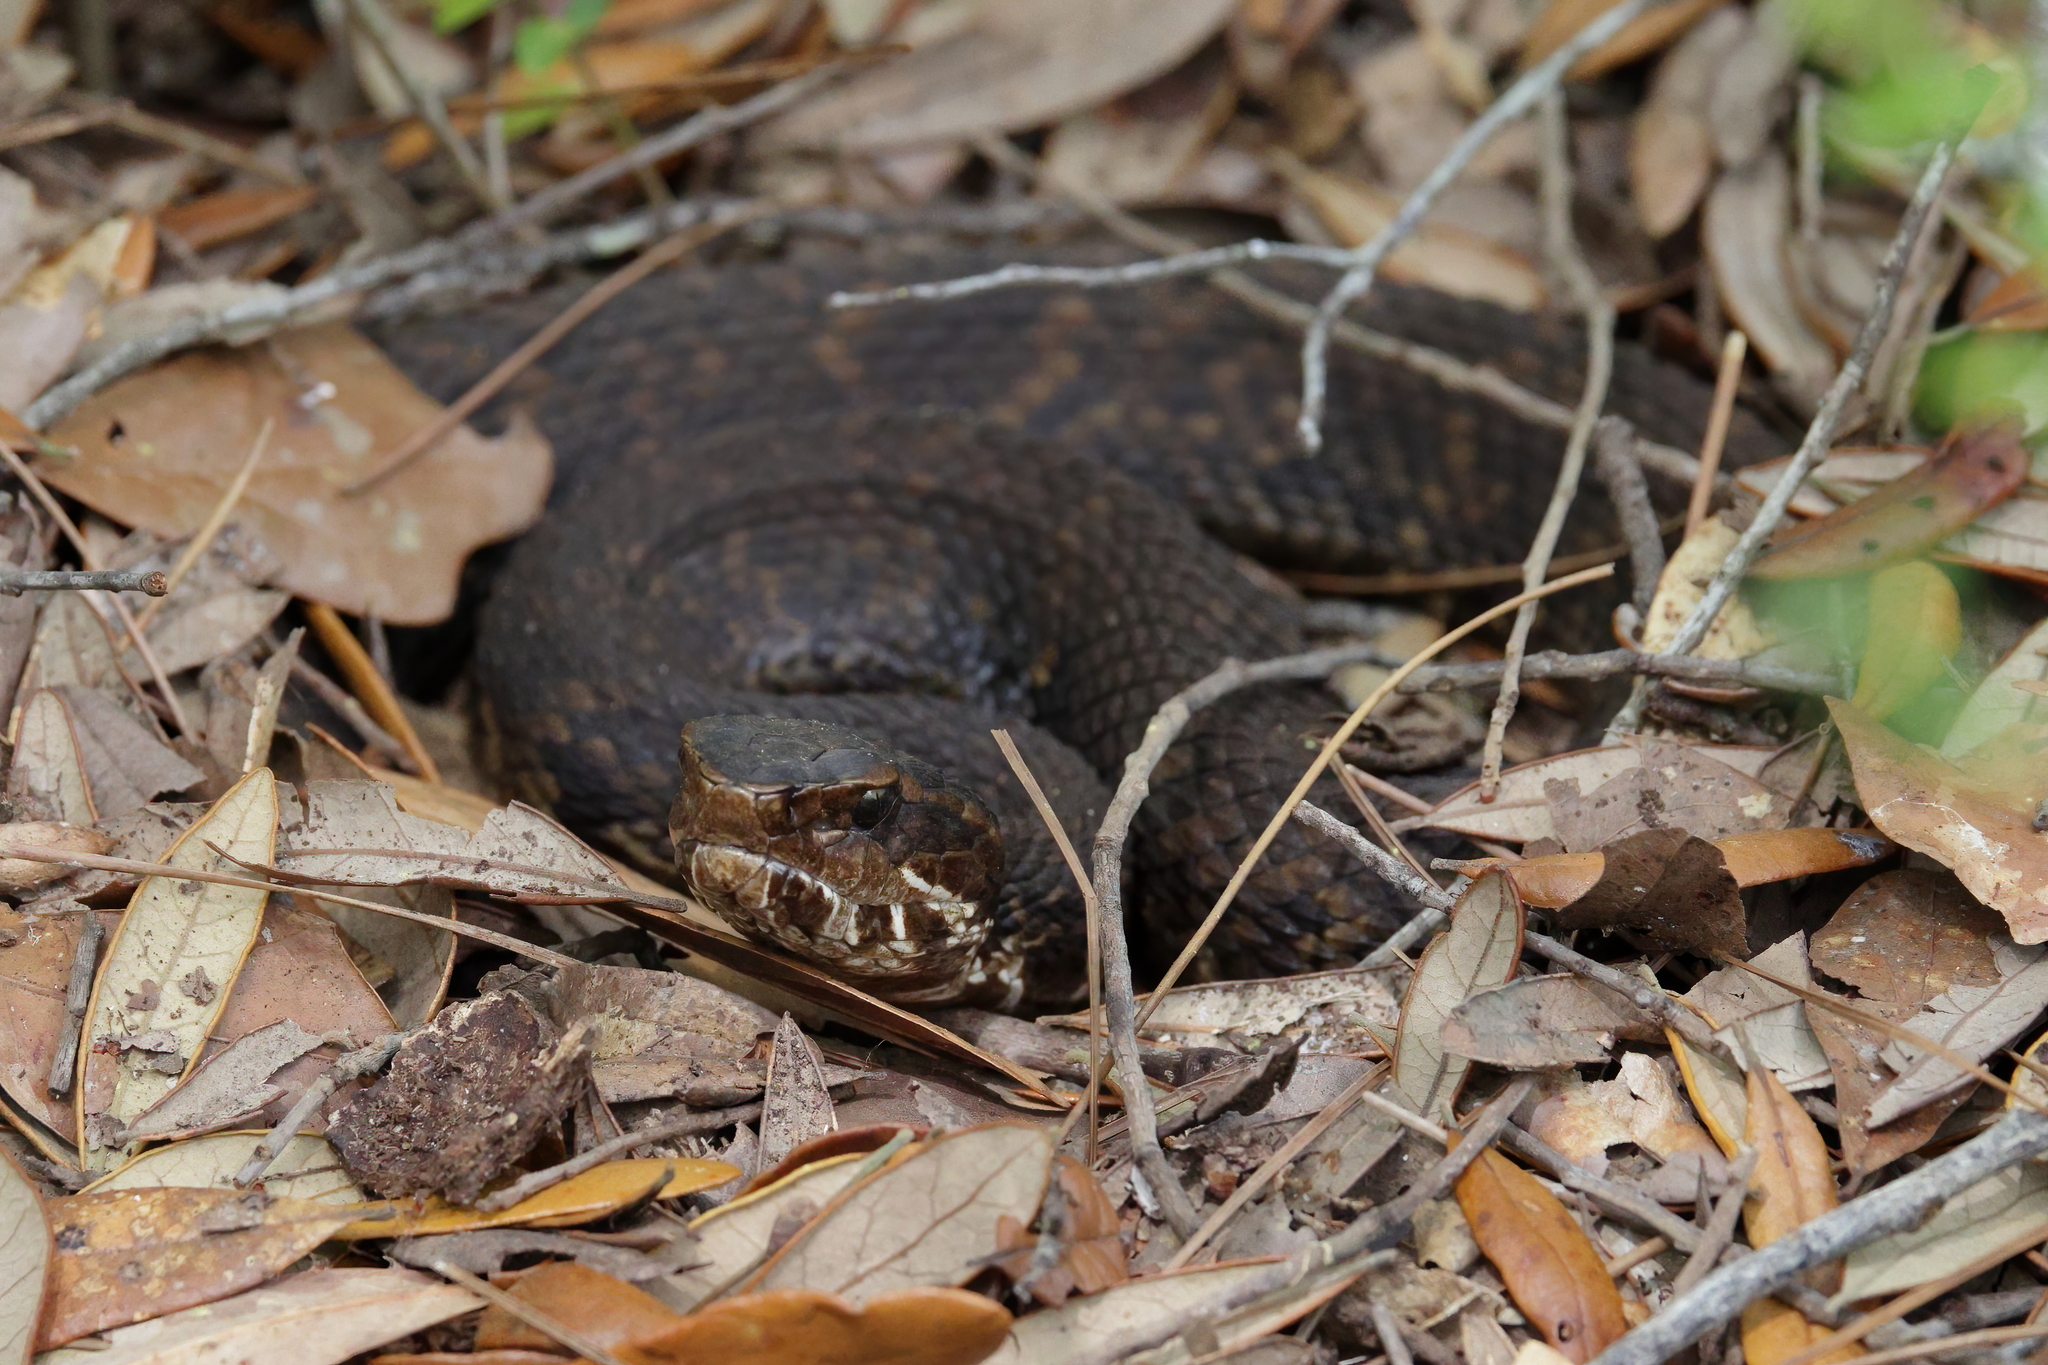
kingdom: Animalia
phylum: Chordata
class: Squamata
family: Viperidae
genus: Agkistrodon
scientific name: Agkistrodon piscivorus
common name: Cottonmouth
